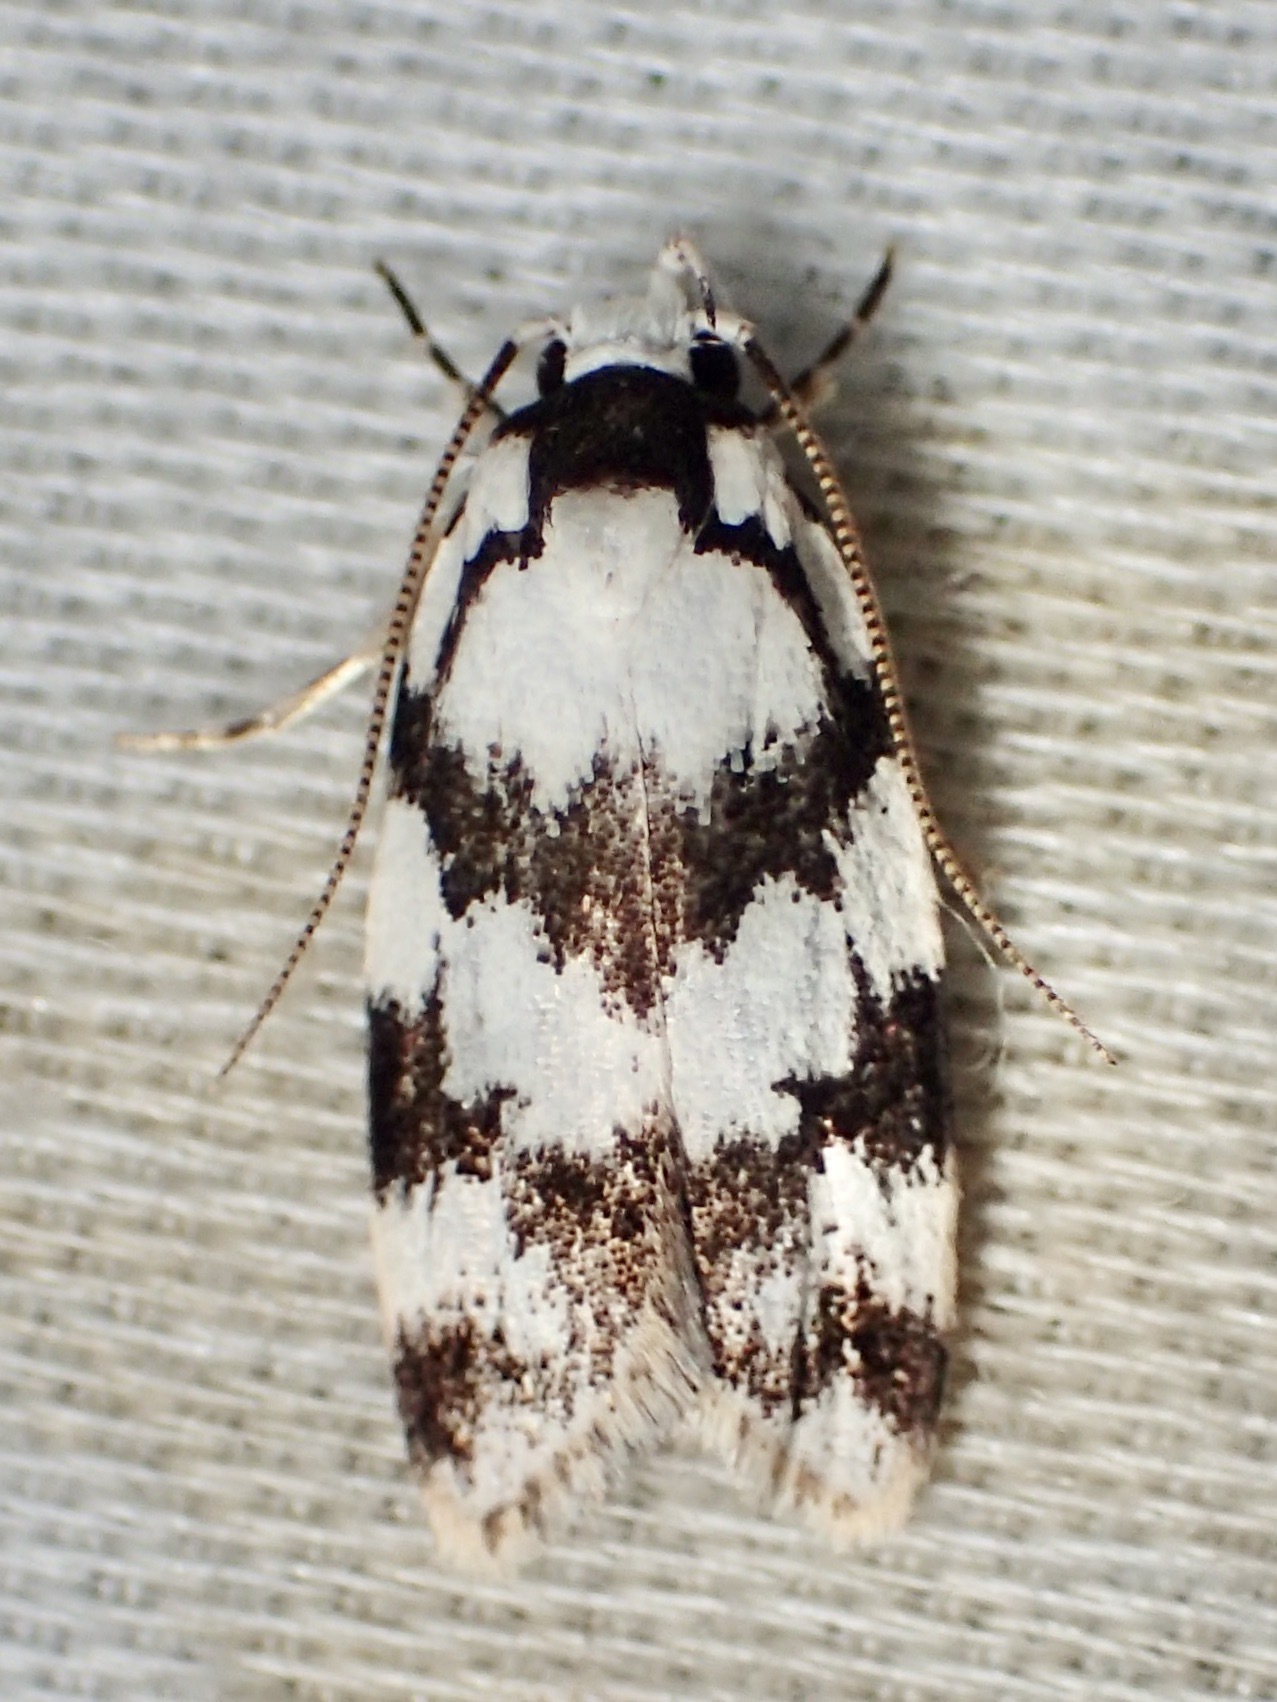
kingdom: Animalia
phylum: Arthropoda
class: Insecta
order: Lepidoptera
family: Oecophoridae
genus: Barea
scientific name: Barea leucocephala
